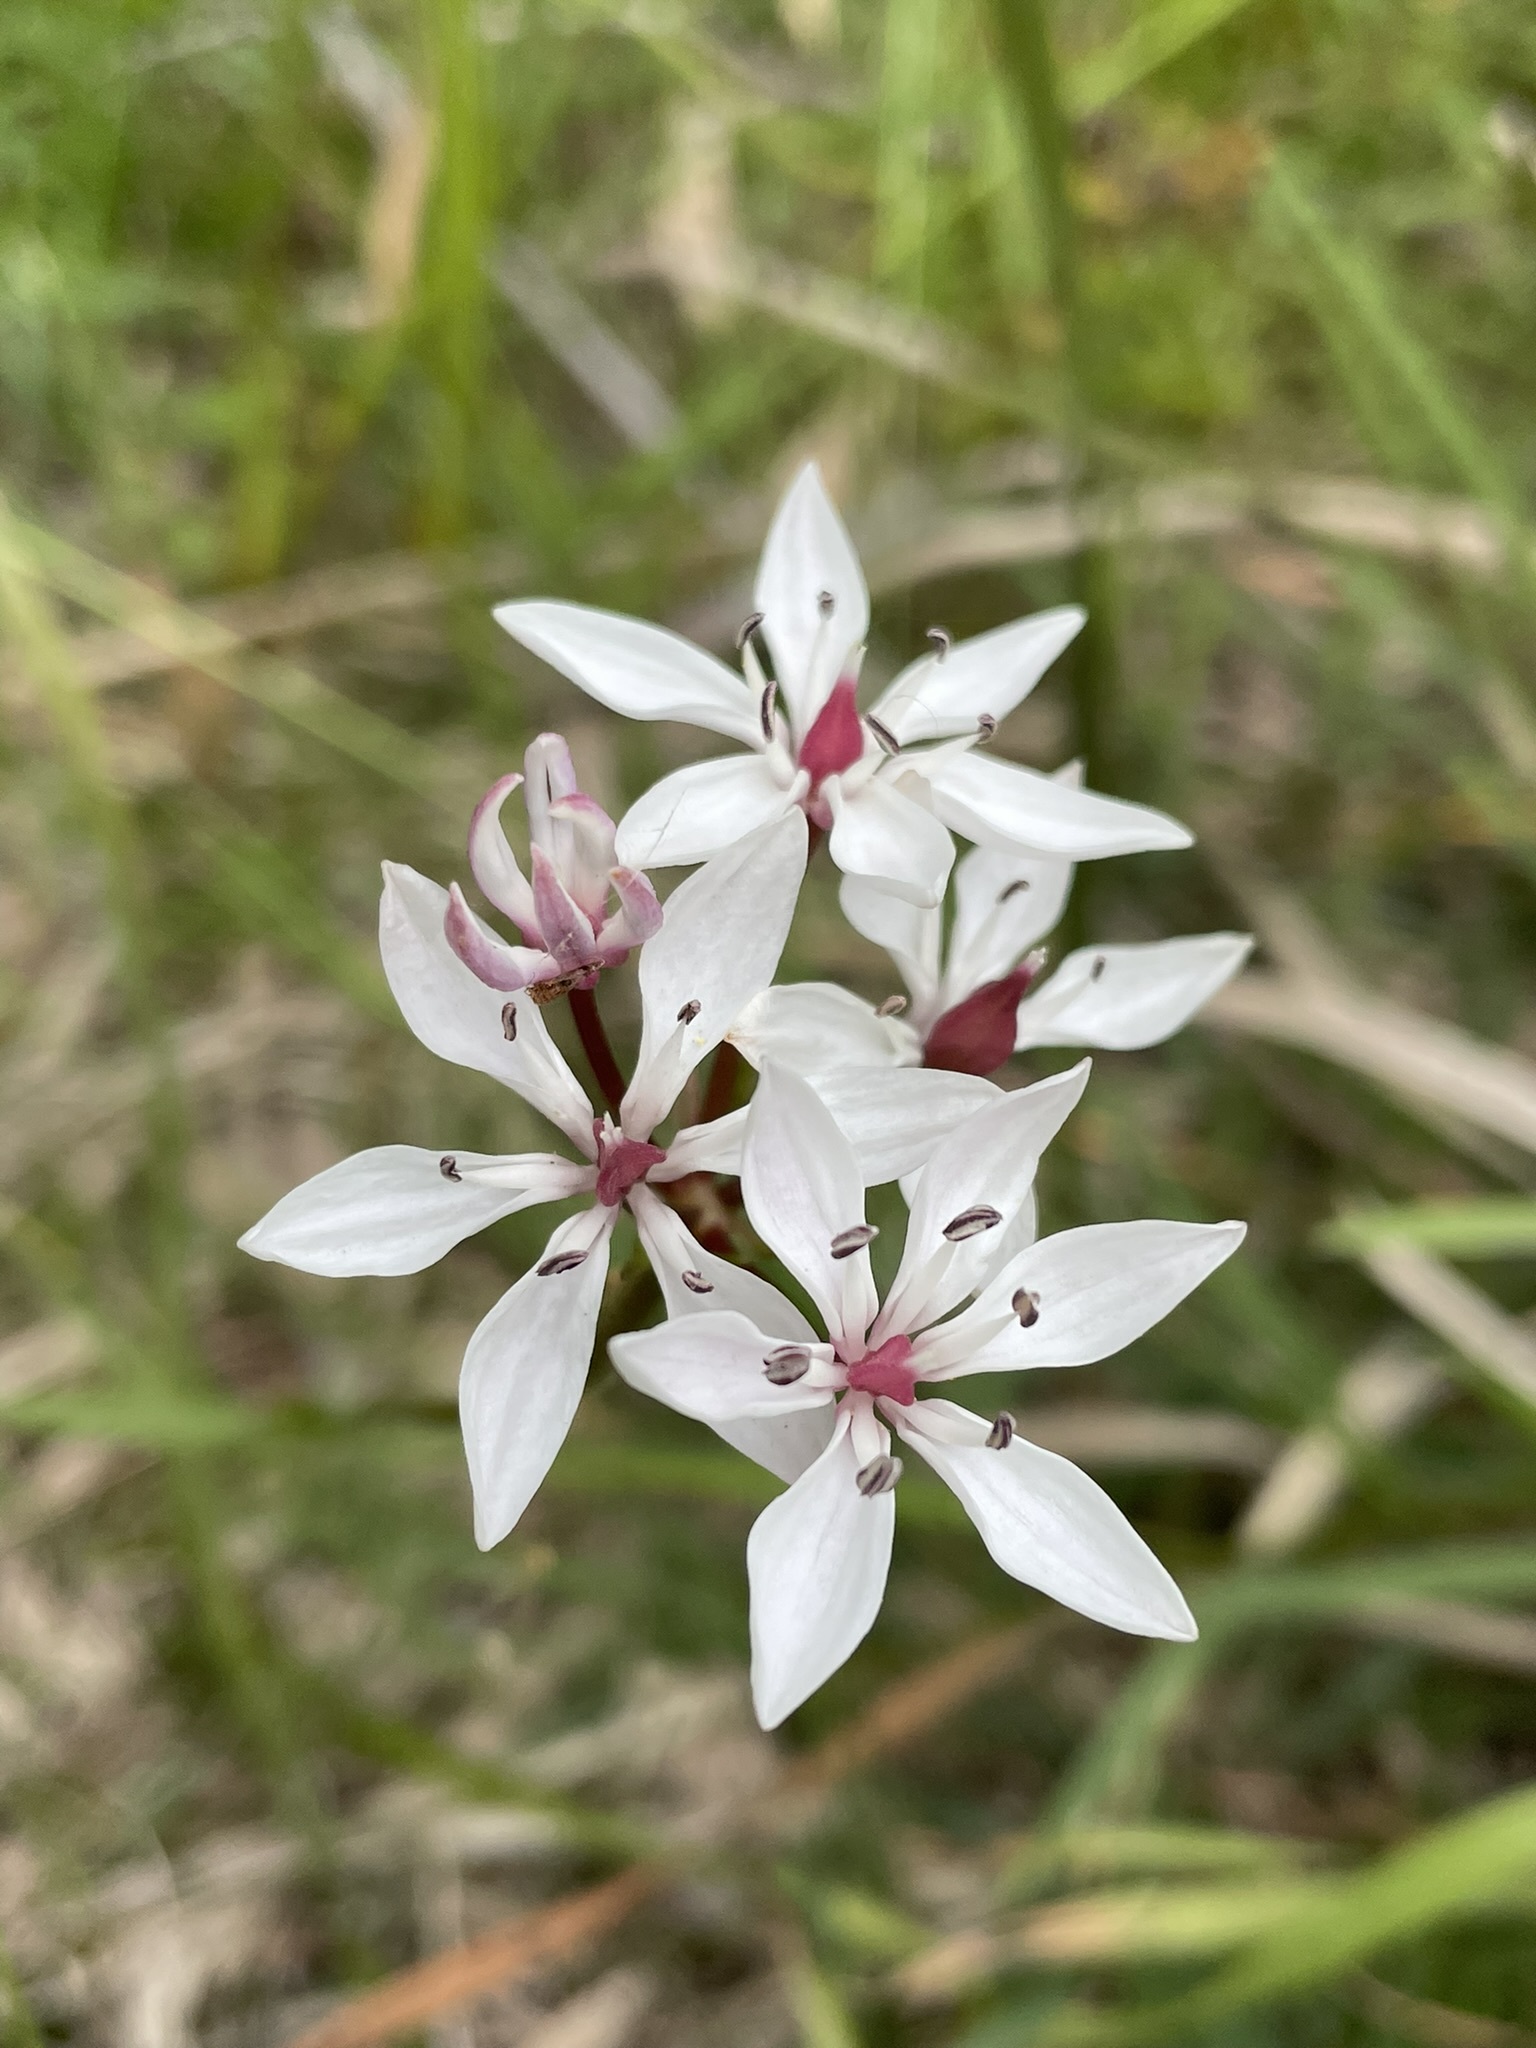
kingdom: Plantae
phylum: Tracheophyta
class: Liliopsida
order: Liliales
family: Colchicaceae
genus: Burchardia
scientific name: Burchardia umbellata
